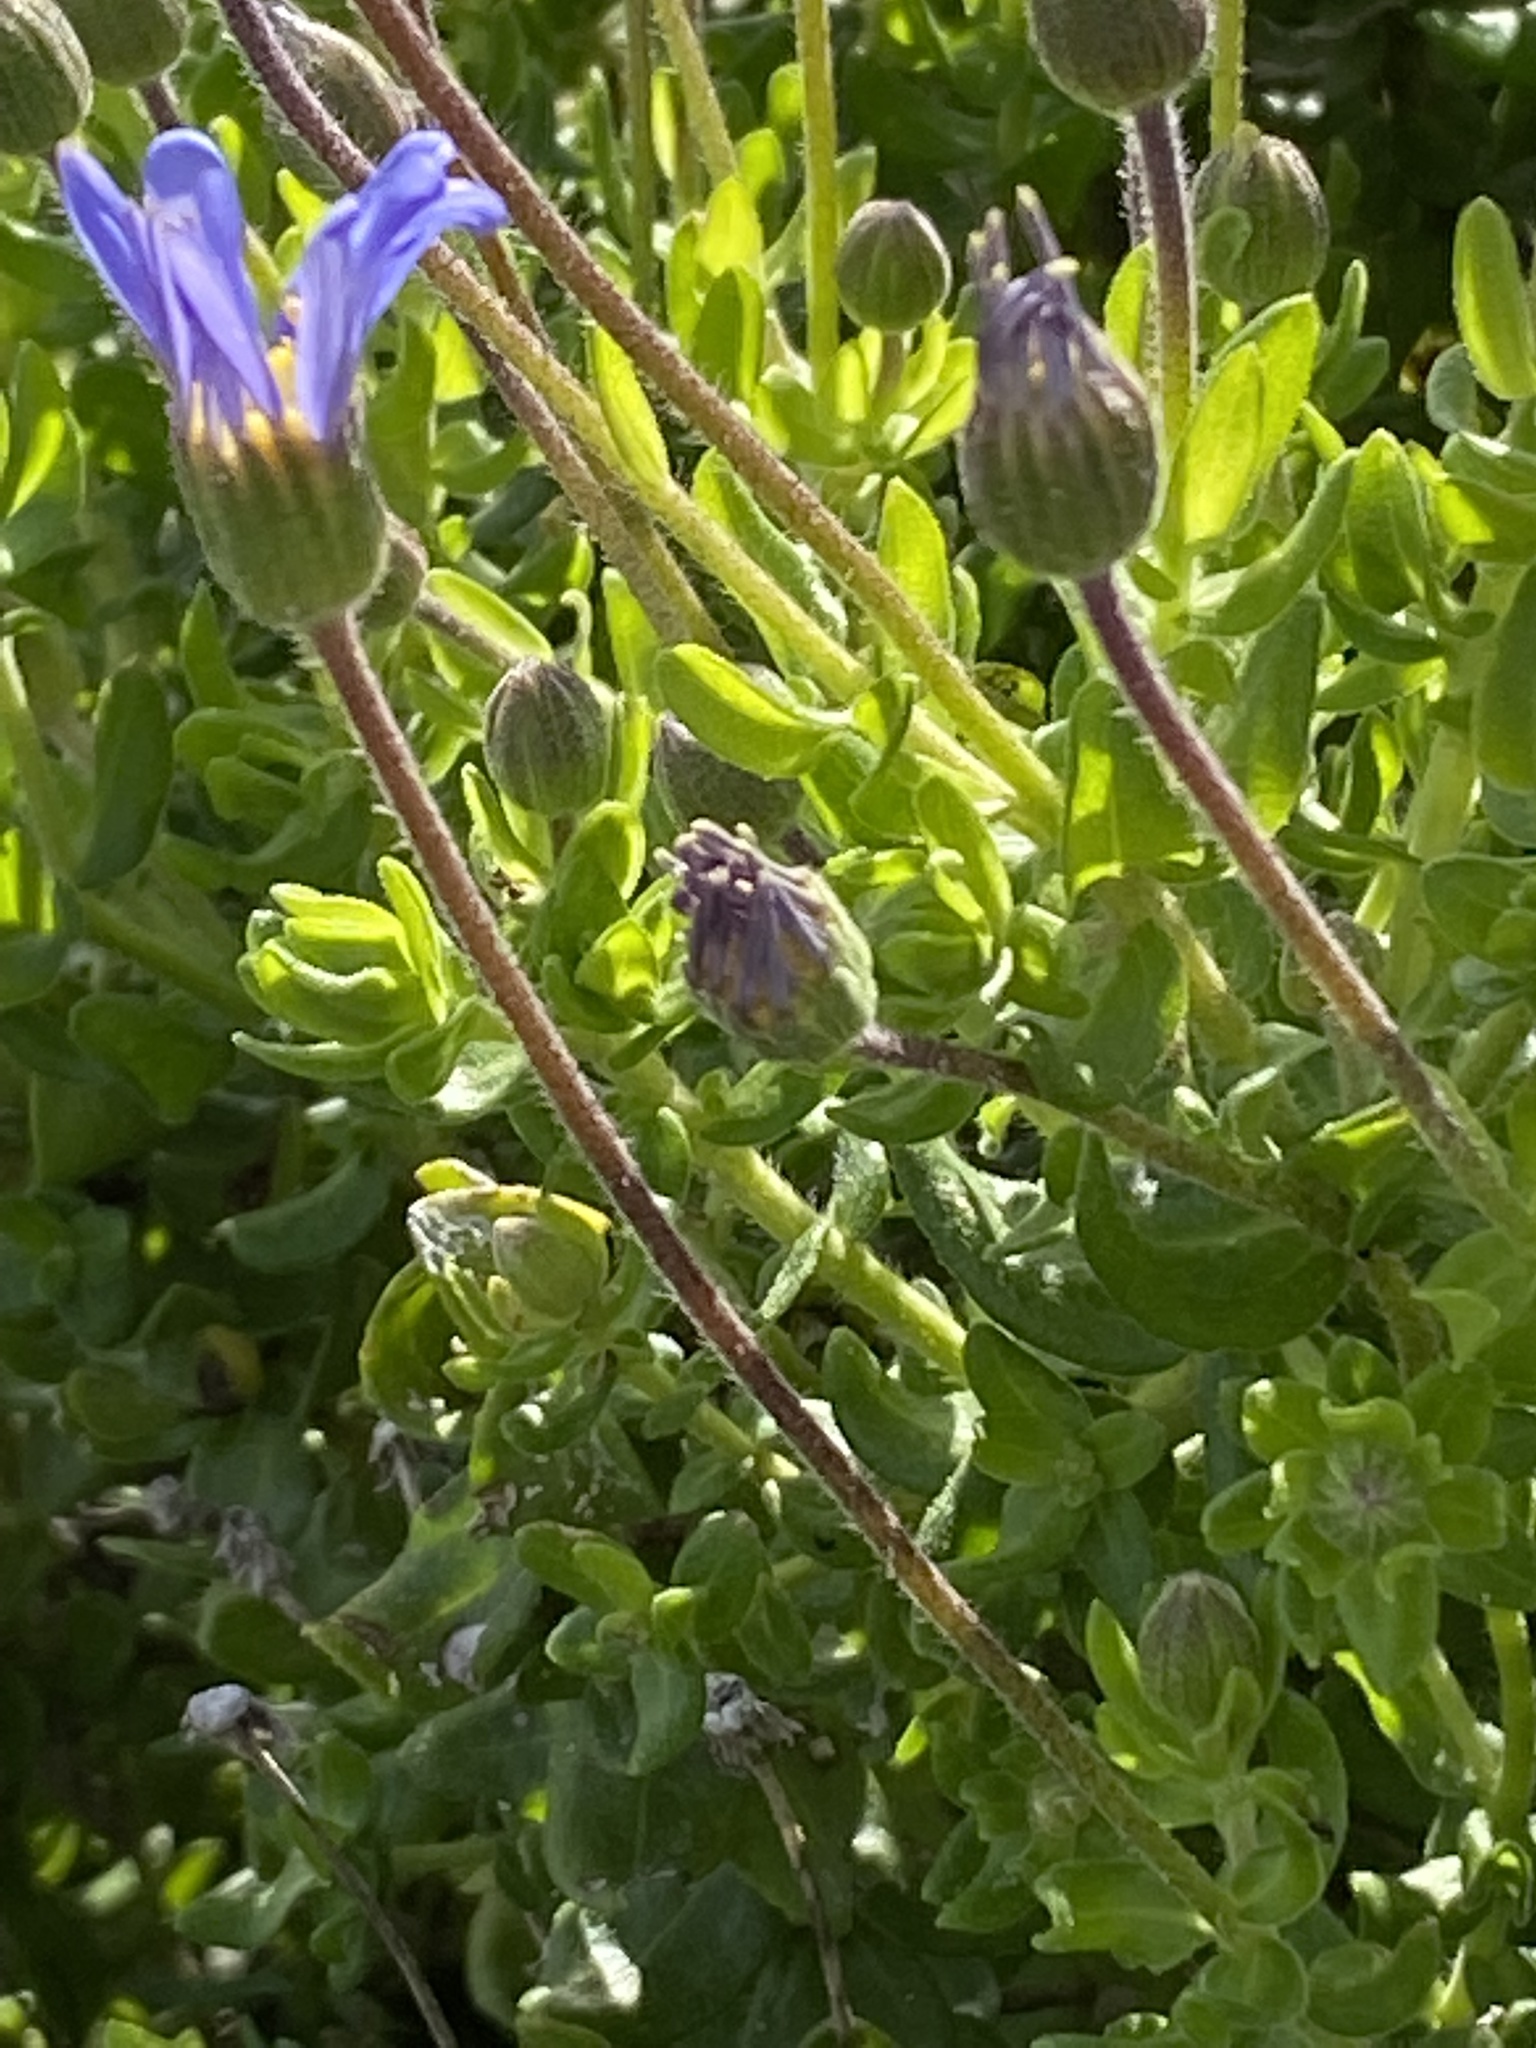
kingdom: Plantae
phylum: Tracheophyta
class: Magnoliopsida
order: Asterales
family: Asteraceae
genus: Felicia
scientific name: Felicia aethiopica
